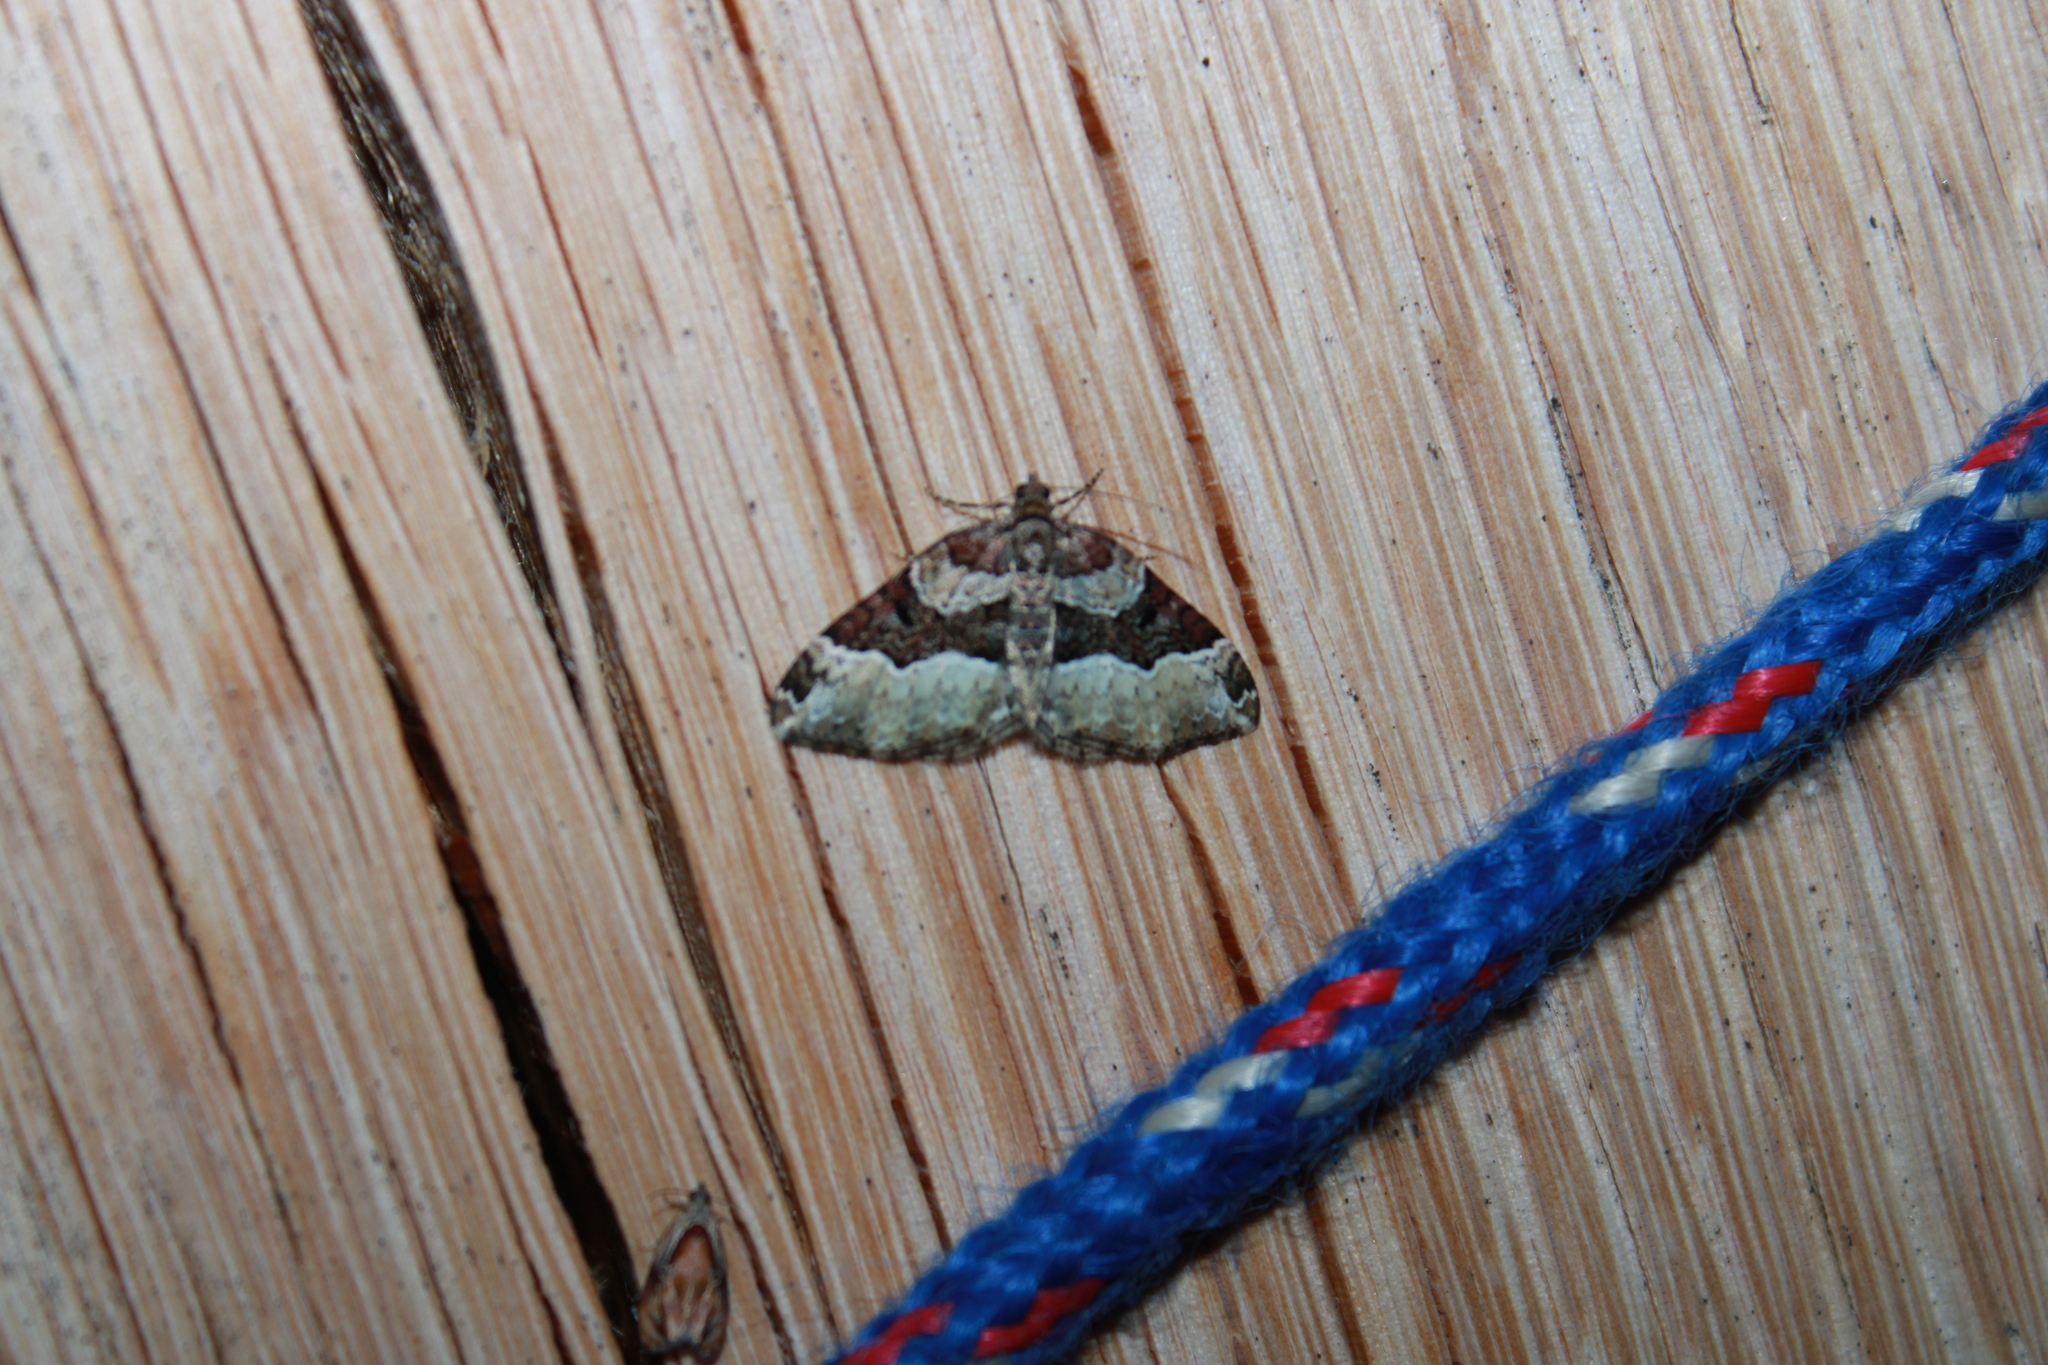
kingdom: Animalia
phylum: Arthropoda
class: Insecta
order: Lepidoptera
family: Geometridae
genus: Euphyia
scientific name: Euphyia intermediata
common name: Sharp-angled carpet
